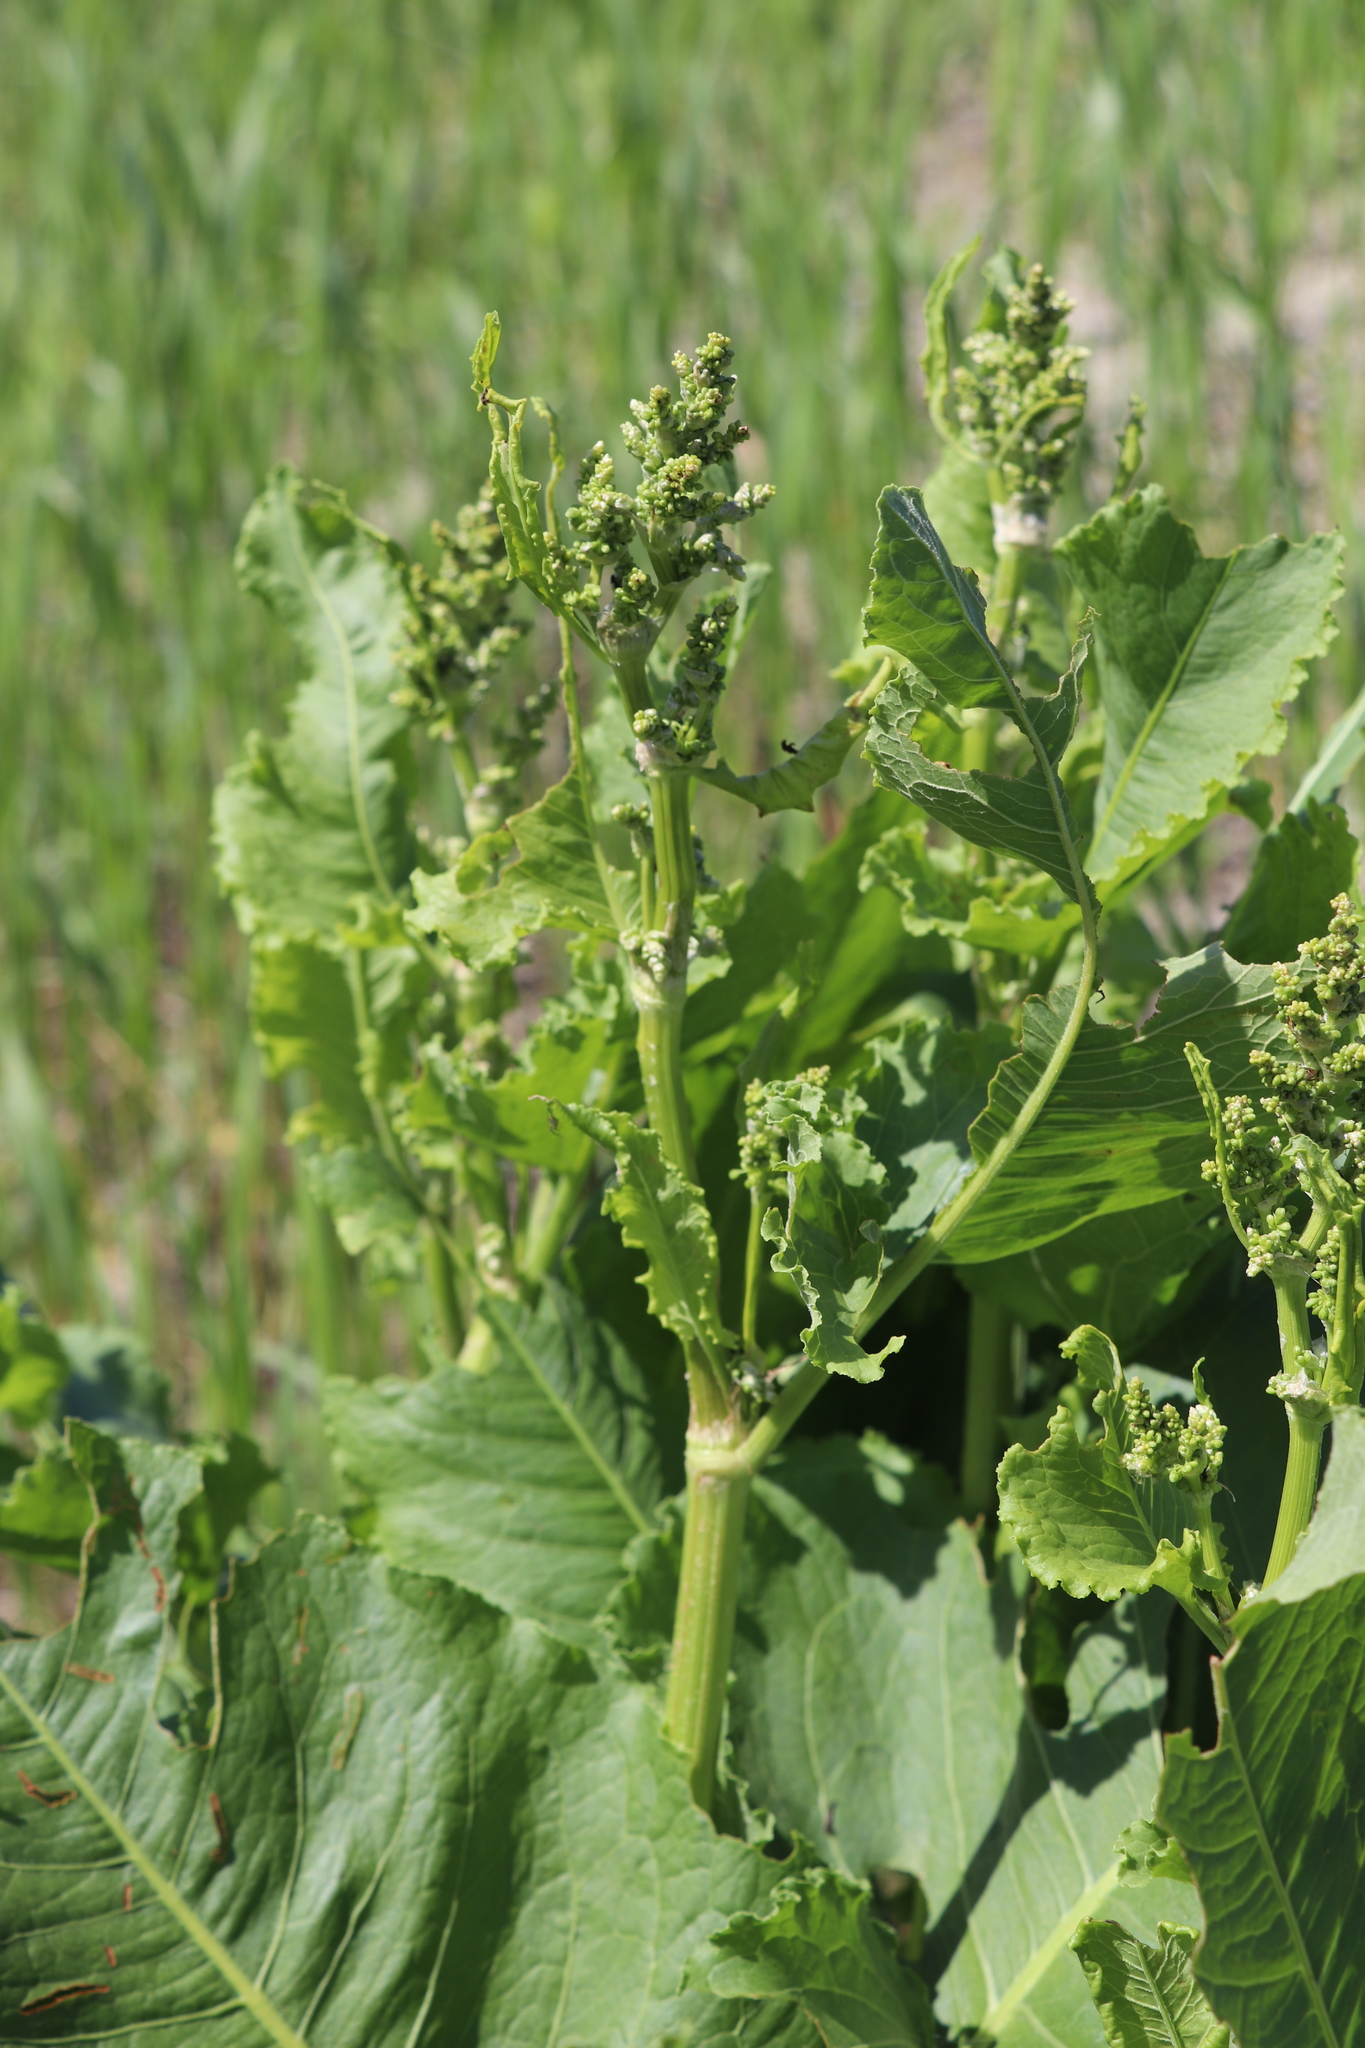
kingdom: Plantae
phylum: Tracheophyta
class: Magnoliopsida
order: Caryophyllales
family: Polygonaceae
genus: Rumex
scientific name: Rumex confertus
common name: Russian dock
